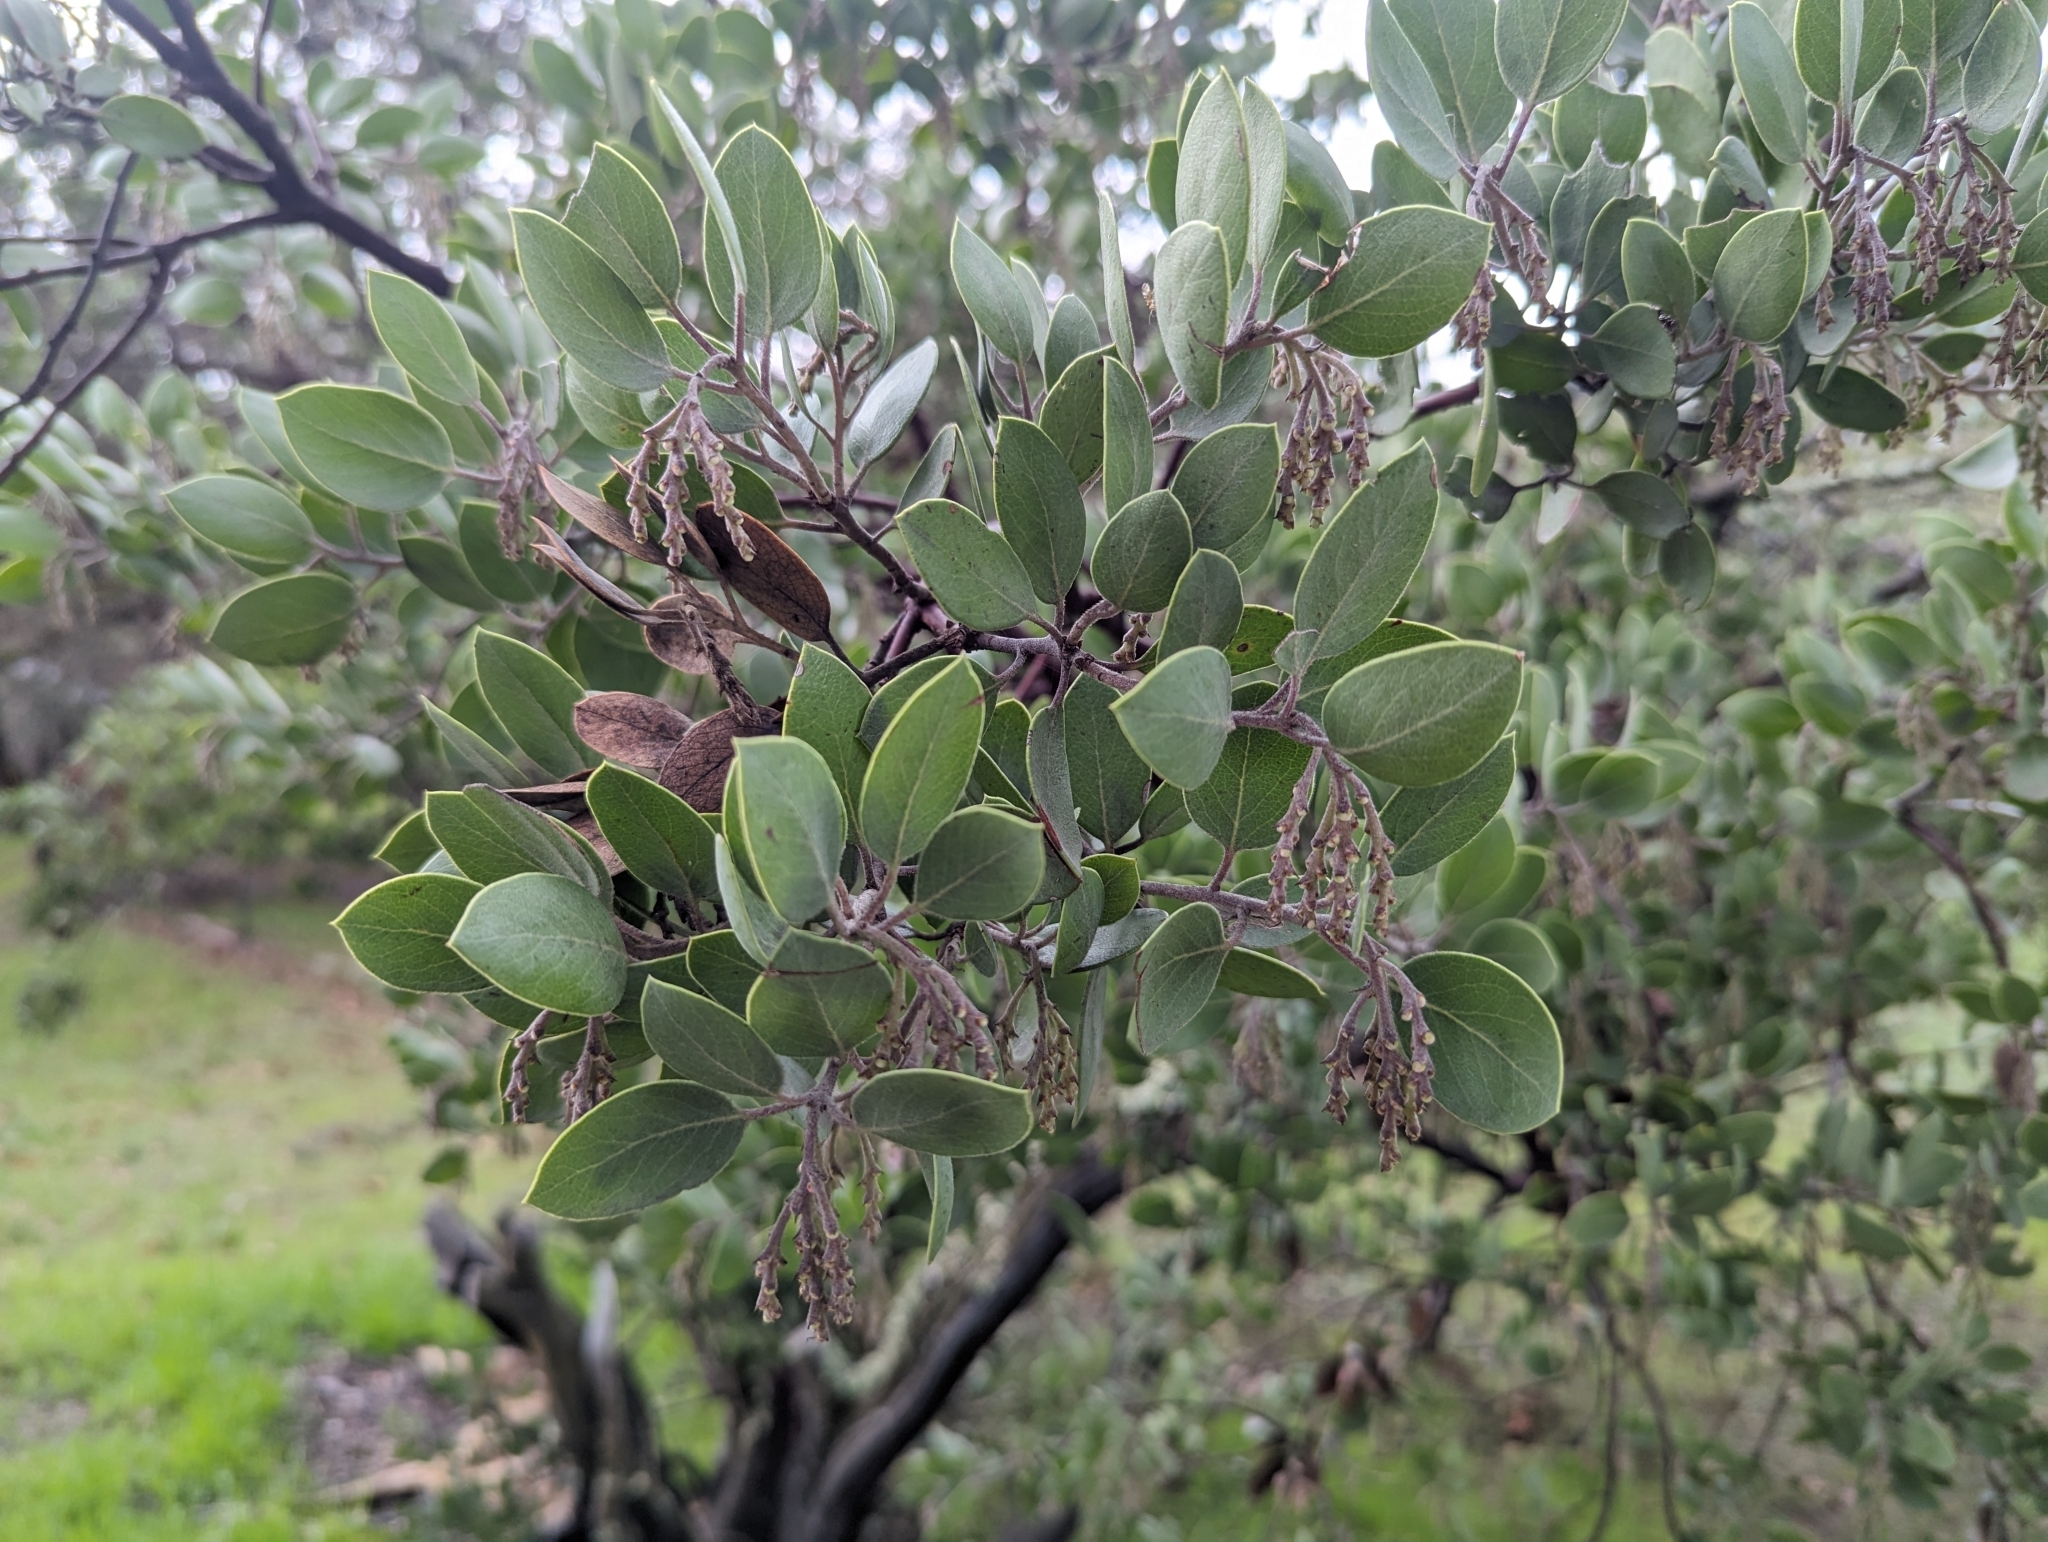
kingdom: Plantae
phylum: Tracheophyta
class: Magnoliopsida
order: Ericales
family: Ericaceae
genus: Arctostaphylos
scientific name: Arctostaphylos manzanita
